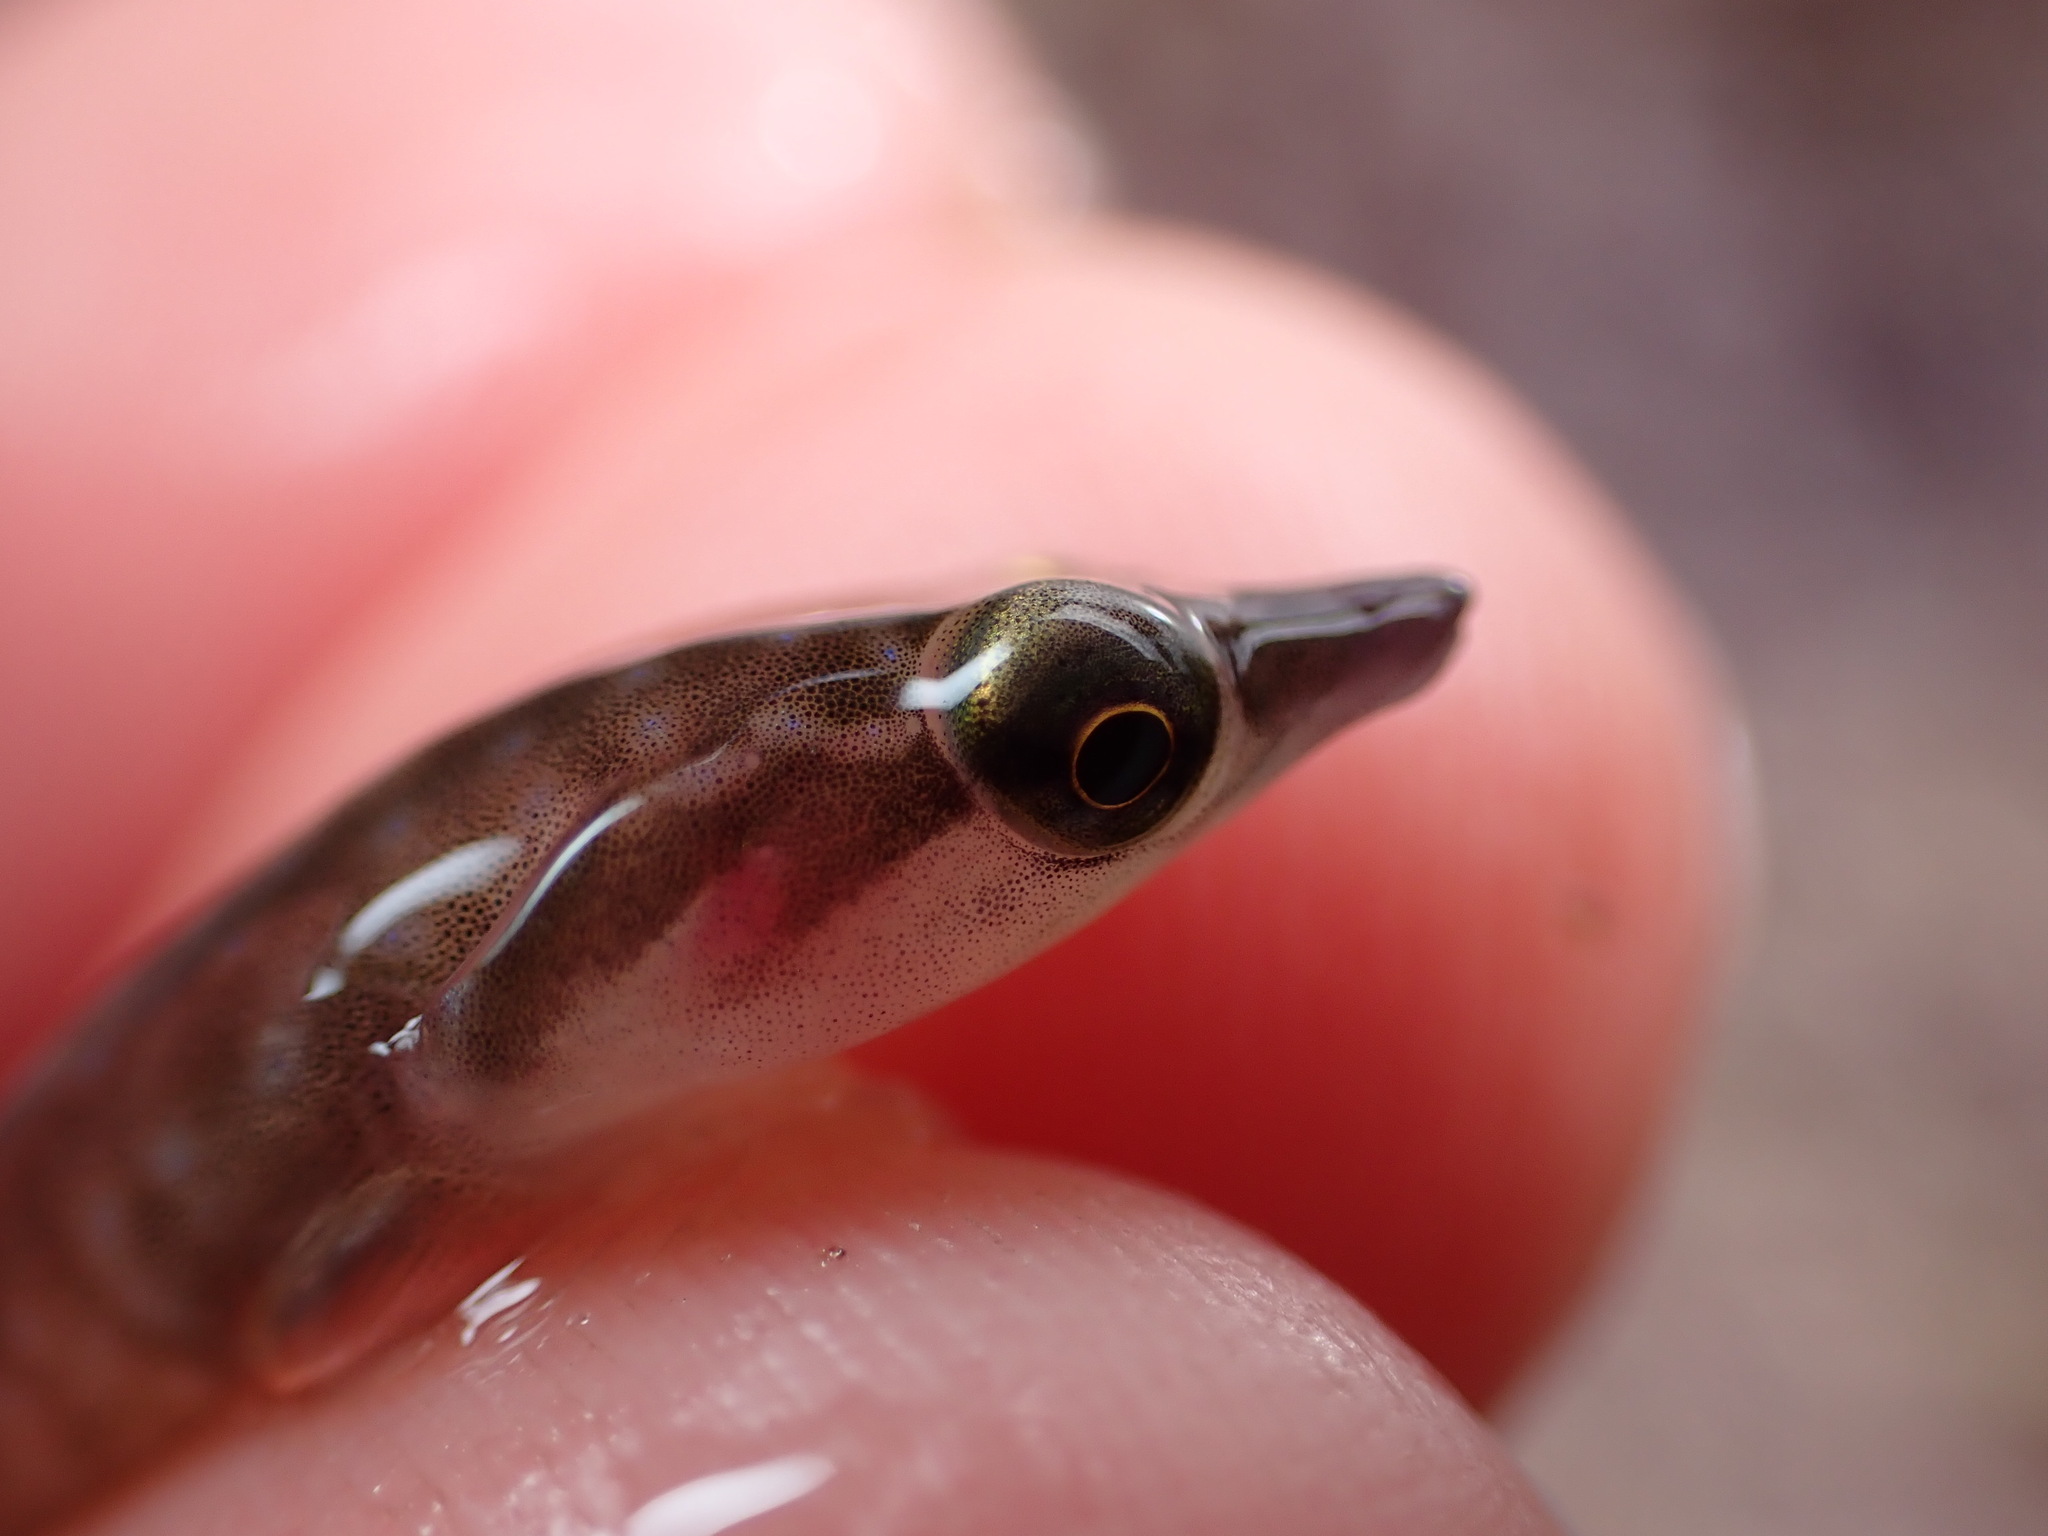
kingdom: Animalia
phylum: Chordata
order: Gobiesociformes
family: Gobiesocidae
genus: Dellichthys
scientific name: Dellichthys trnskii
